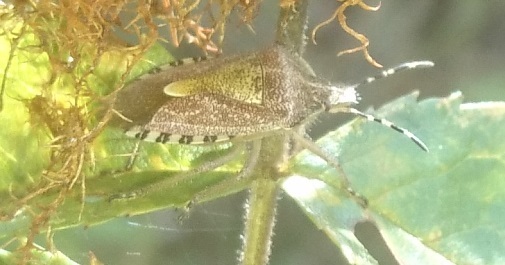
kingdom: Animalia
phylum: Arthropoda
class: Insecta
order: Hemiptera
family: Pentatomidae
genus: Dolycoris
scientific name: Dolycoris baccarum
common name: Sloe bug
